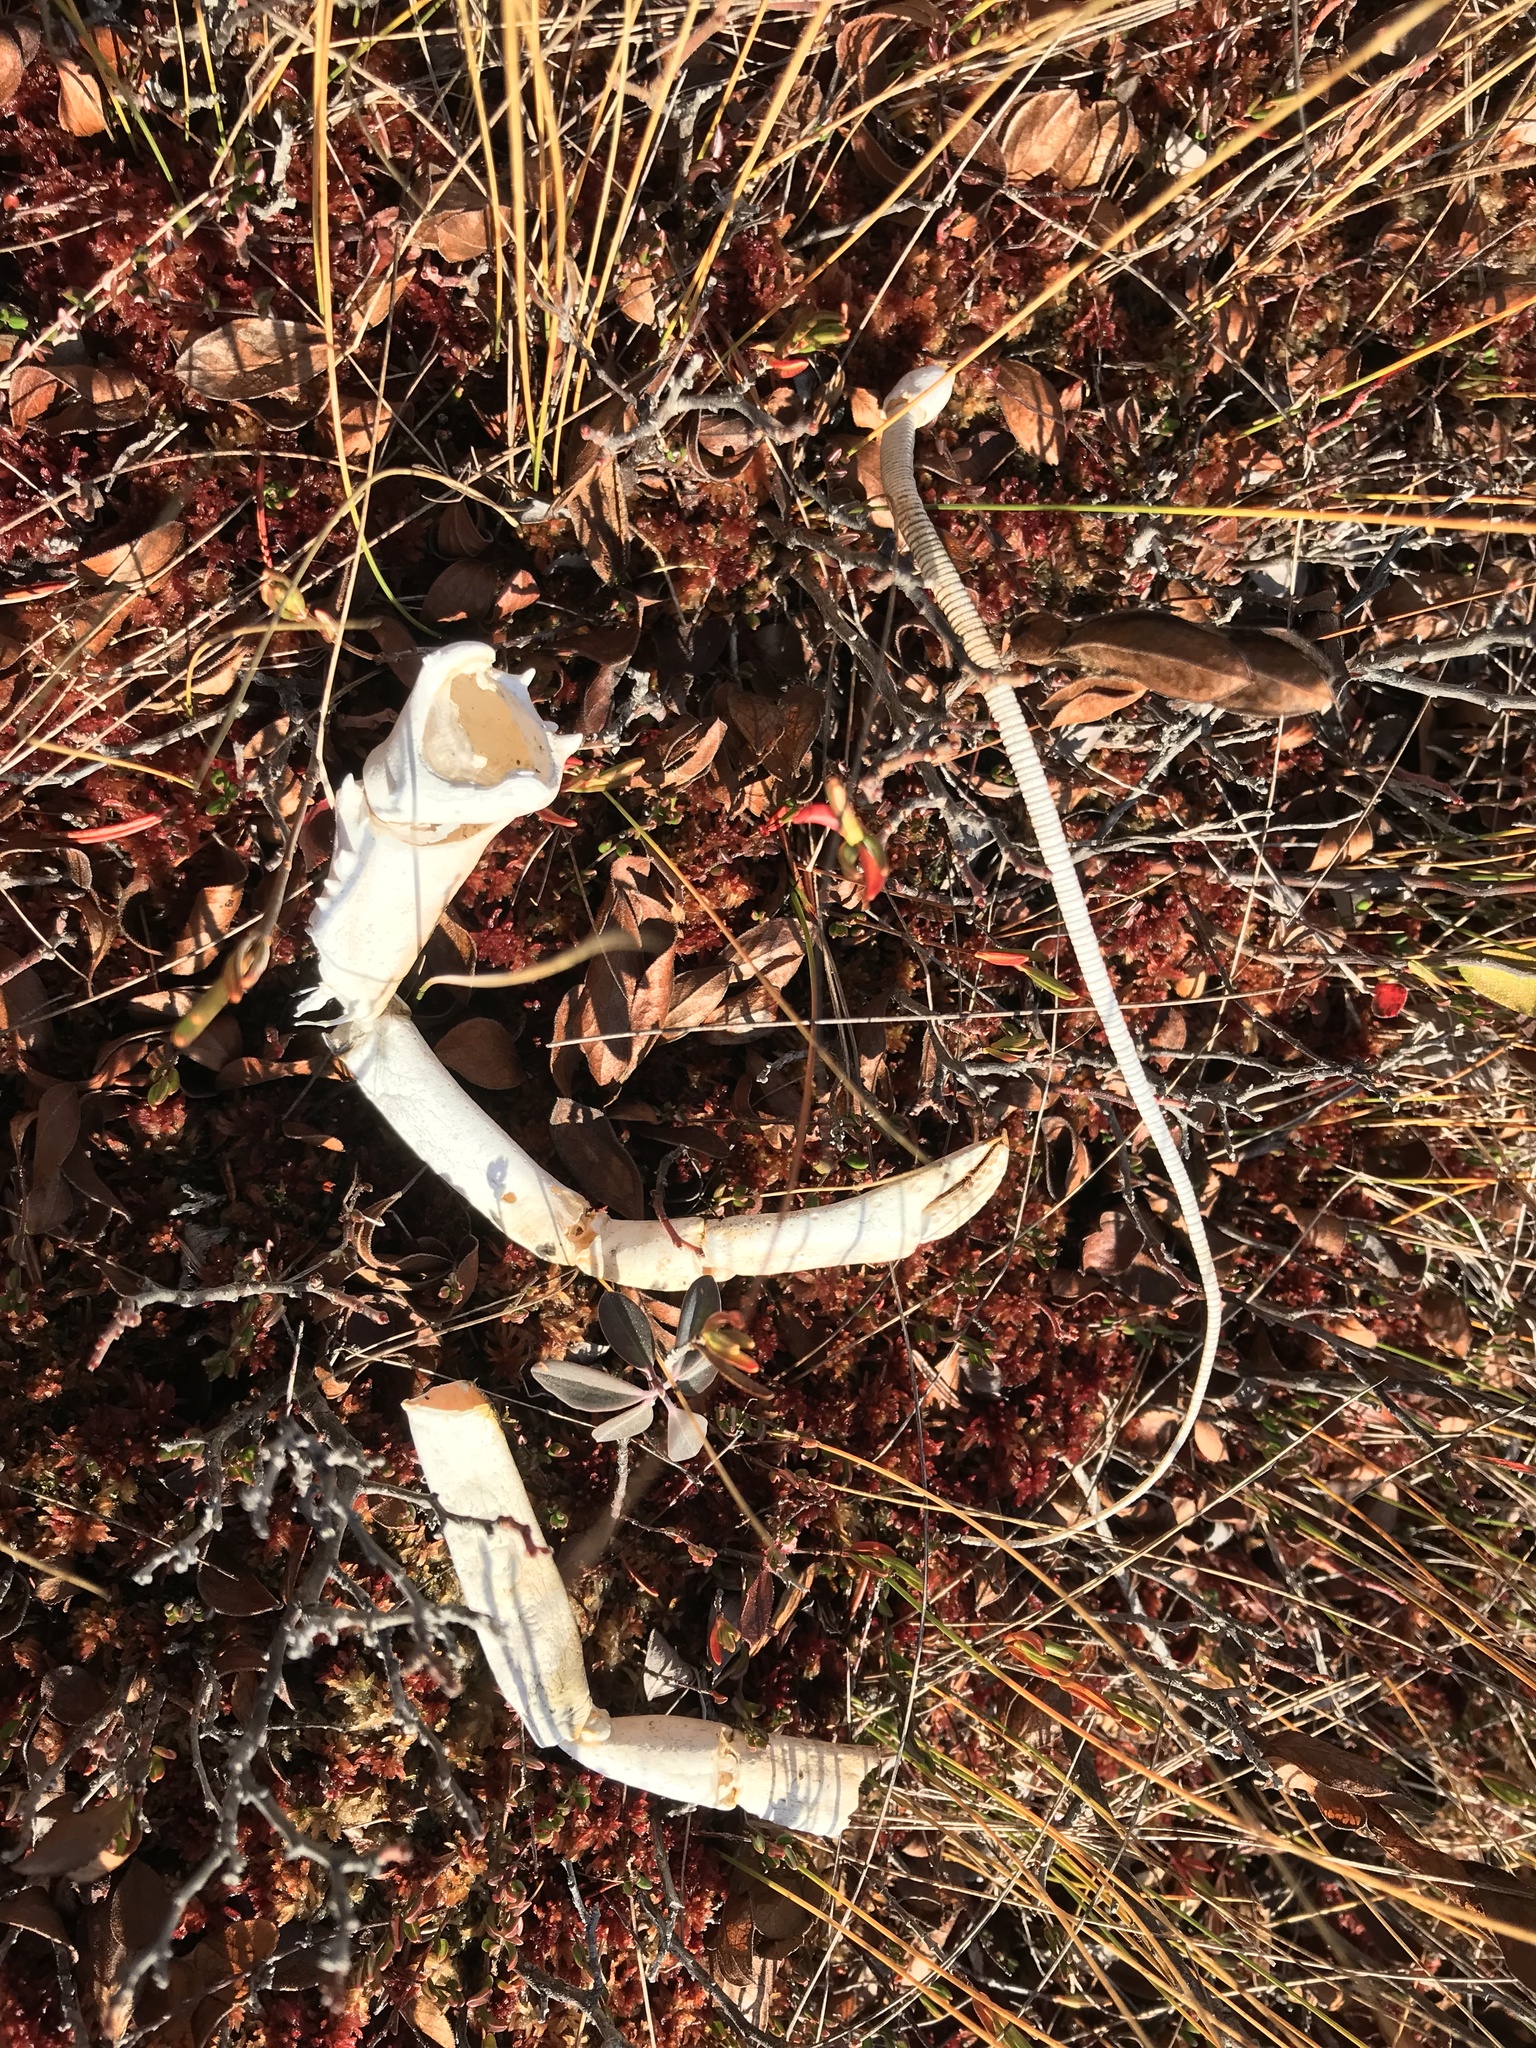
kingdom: Animalia
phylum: Arthropoda
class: Malacostraca
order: Decapoda
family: Nephropidae
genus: Homarus
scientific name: Homarus americanus
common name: American lobster
